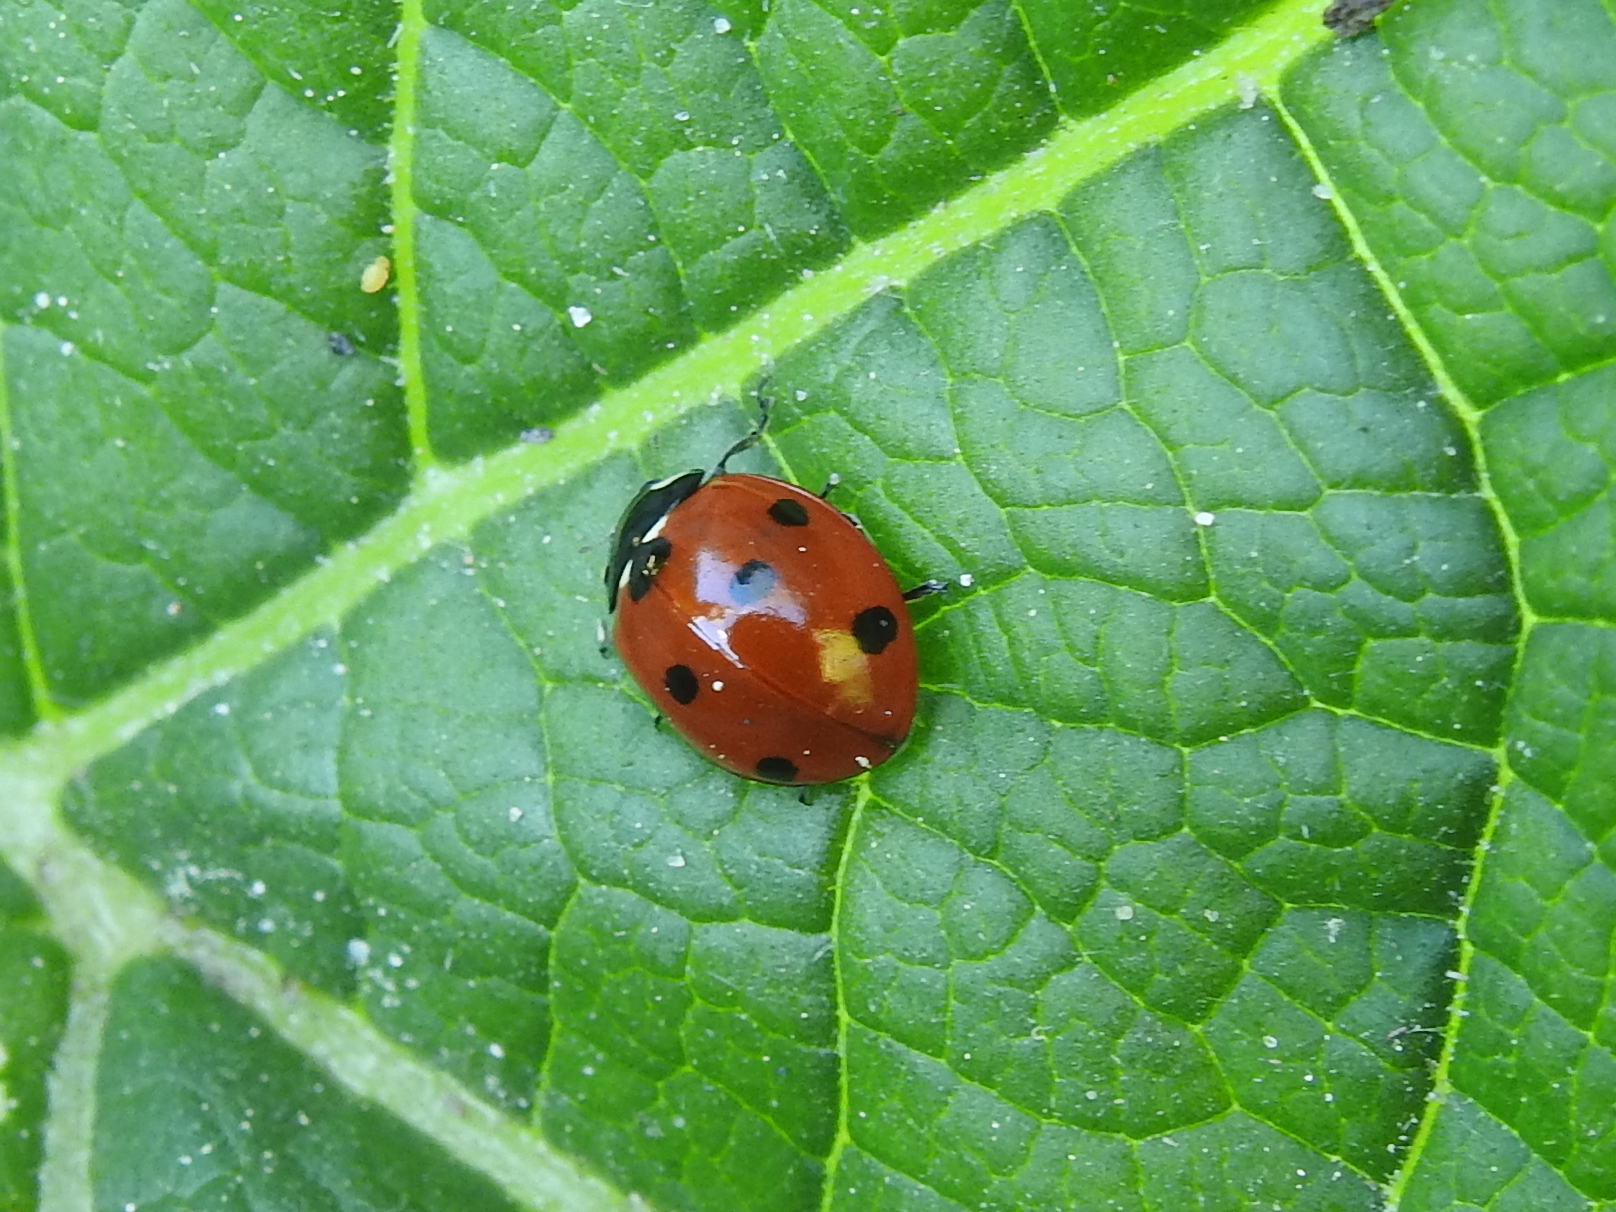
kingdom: Animalia
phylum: Arthropoda
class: Insecta
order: Coleoptera
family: Coccinellidae
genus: Coccinella
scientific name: Coccinella septempunctata
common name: Sevenspotted lady beetle
